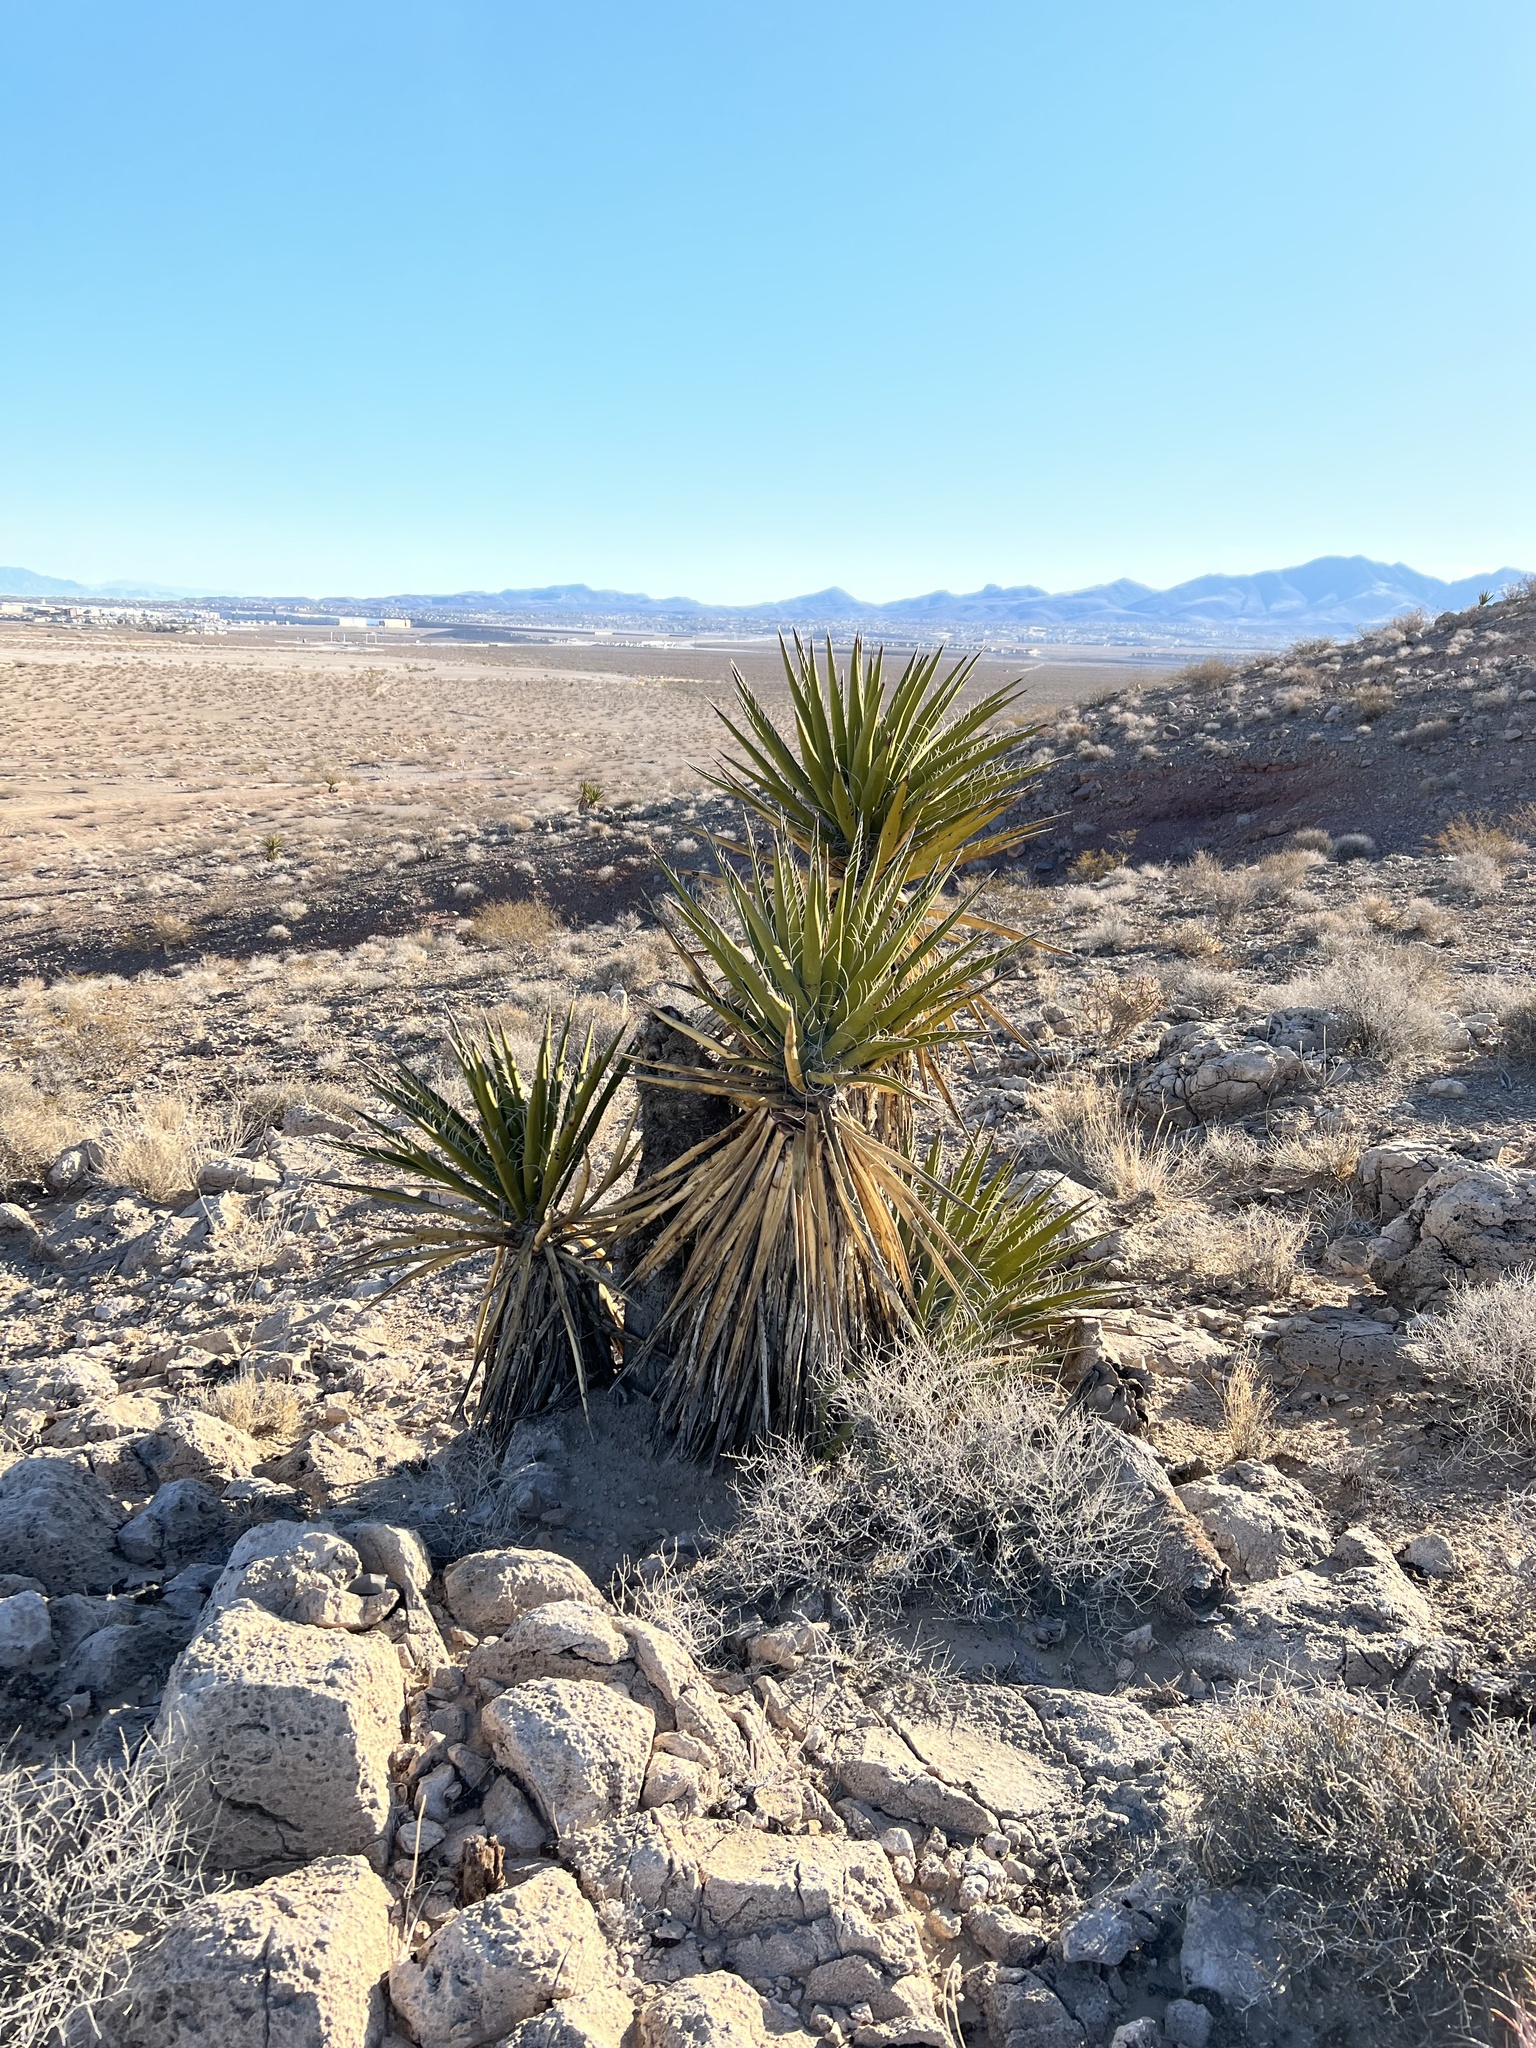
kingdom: Plantae
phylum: Tracheophyta
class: Liliopsida
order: Asparagales
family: Asparagaceae
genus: Yucca
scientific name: Yucca schidigera
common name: Mojave yucca
